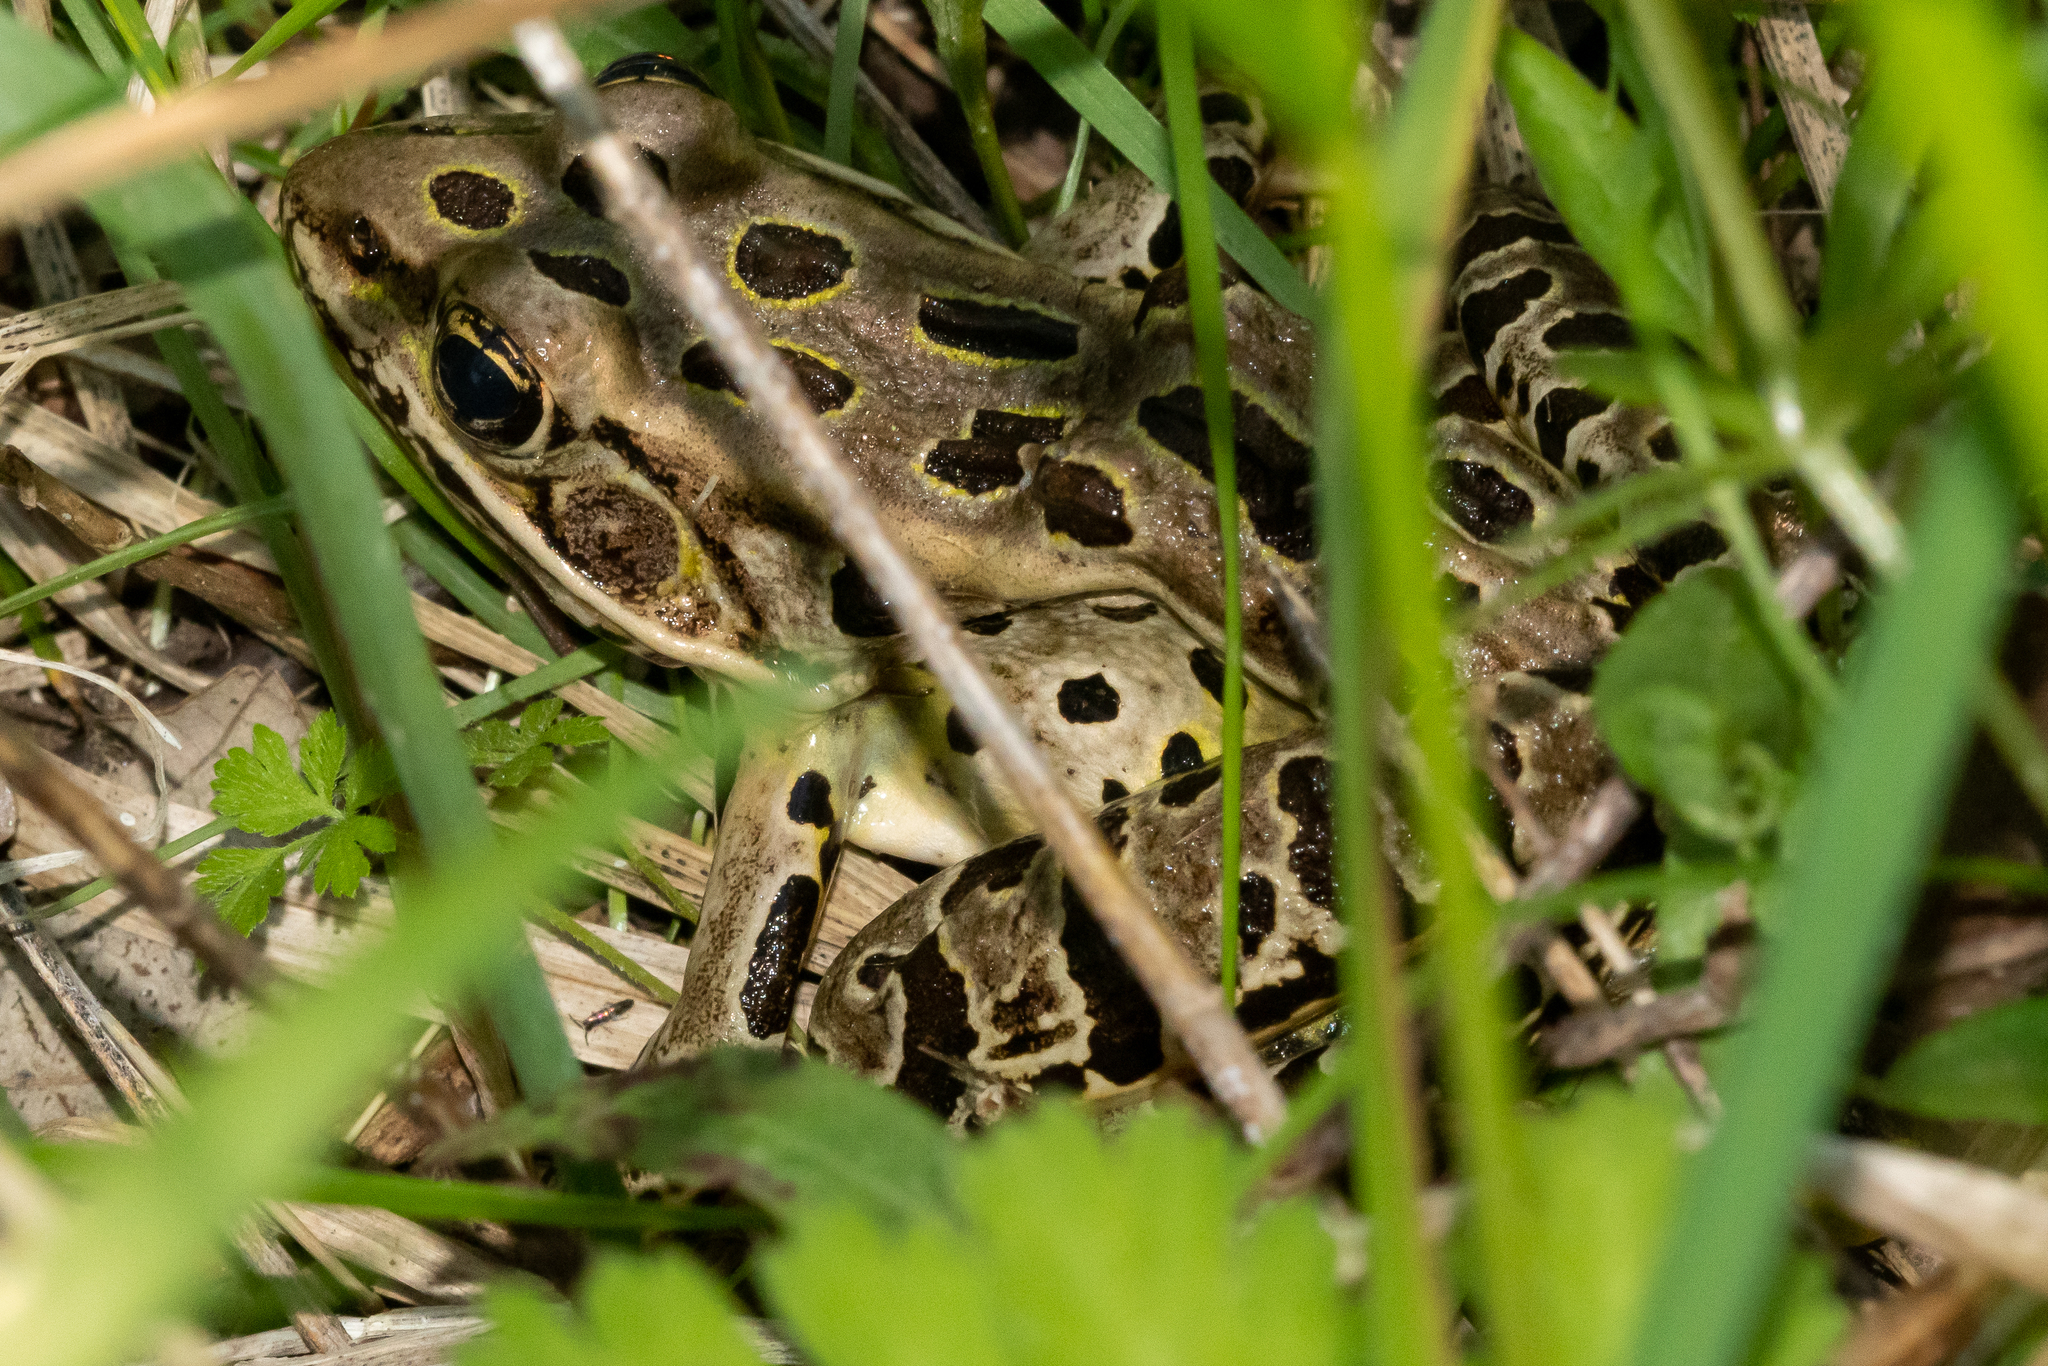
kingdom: Animalia
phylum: Chordata
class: Amphibia
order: Anura
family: Ranidae
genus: Lithobates
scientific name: Lithobates pipiens
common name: Northern leopard frog
